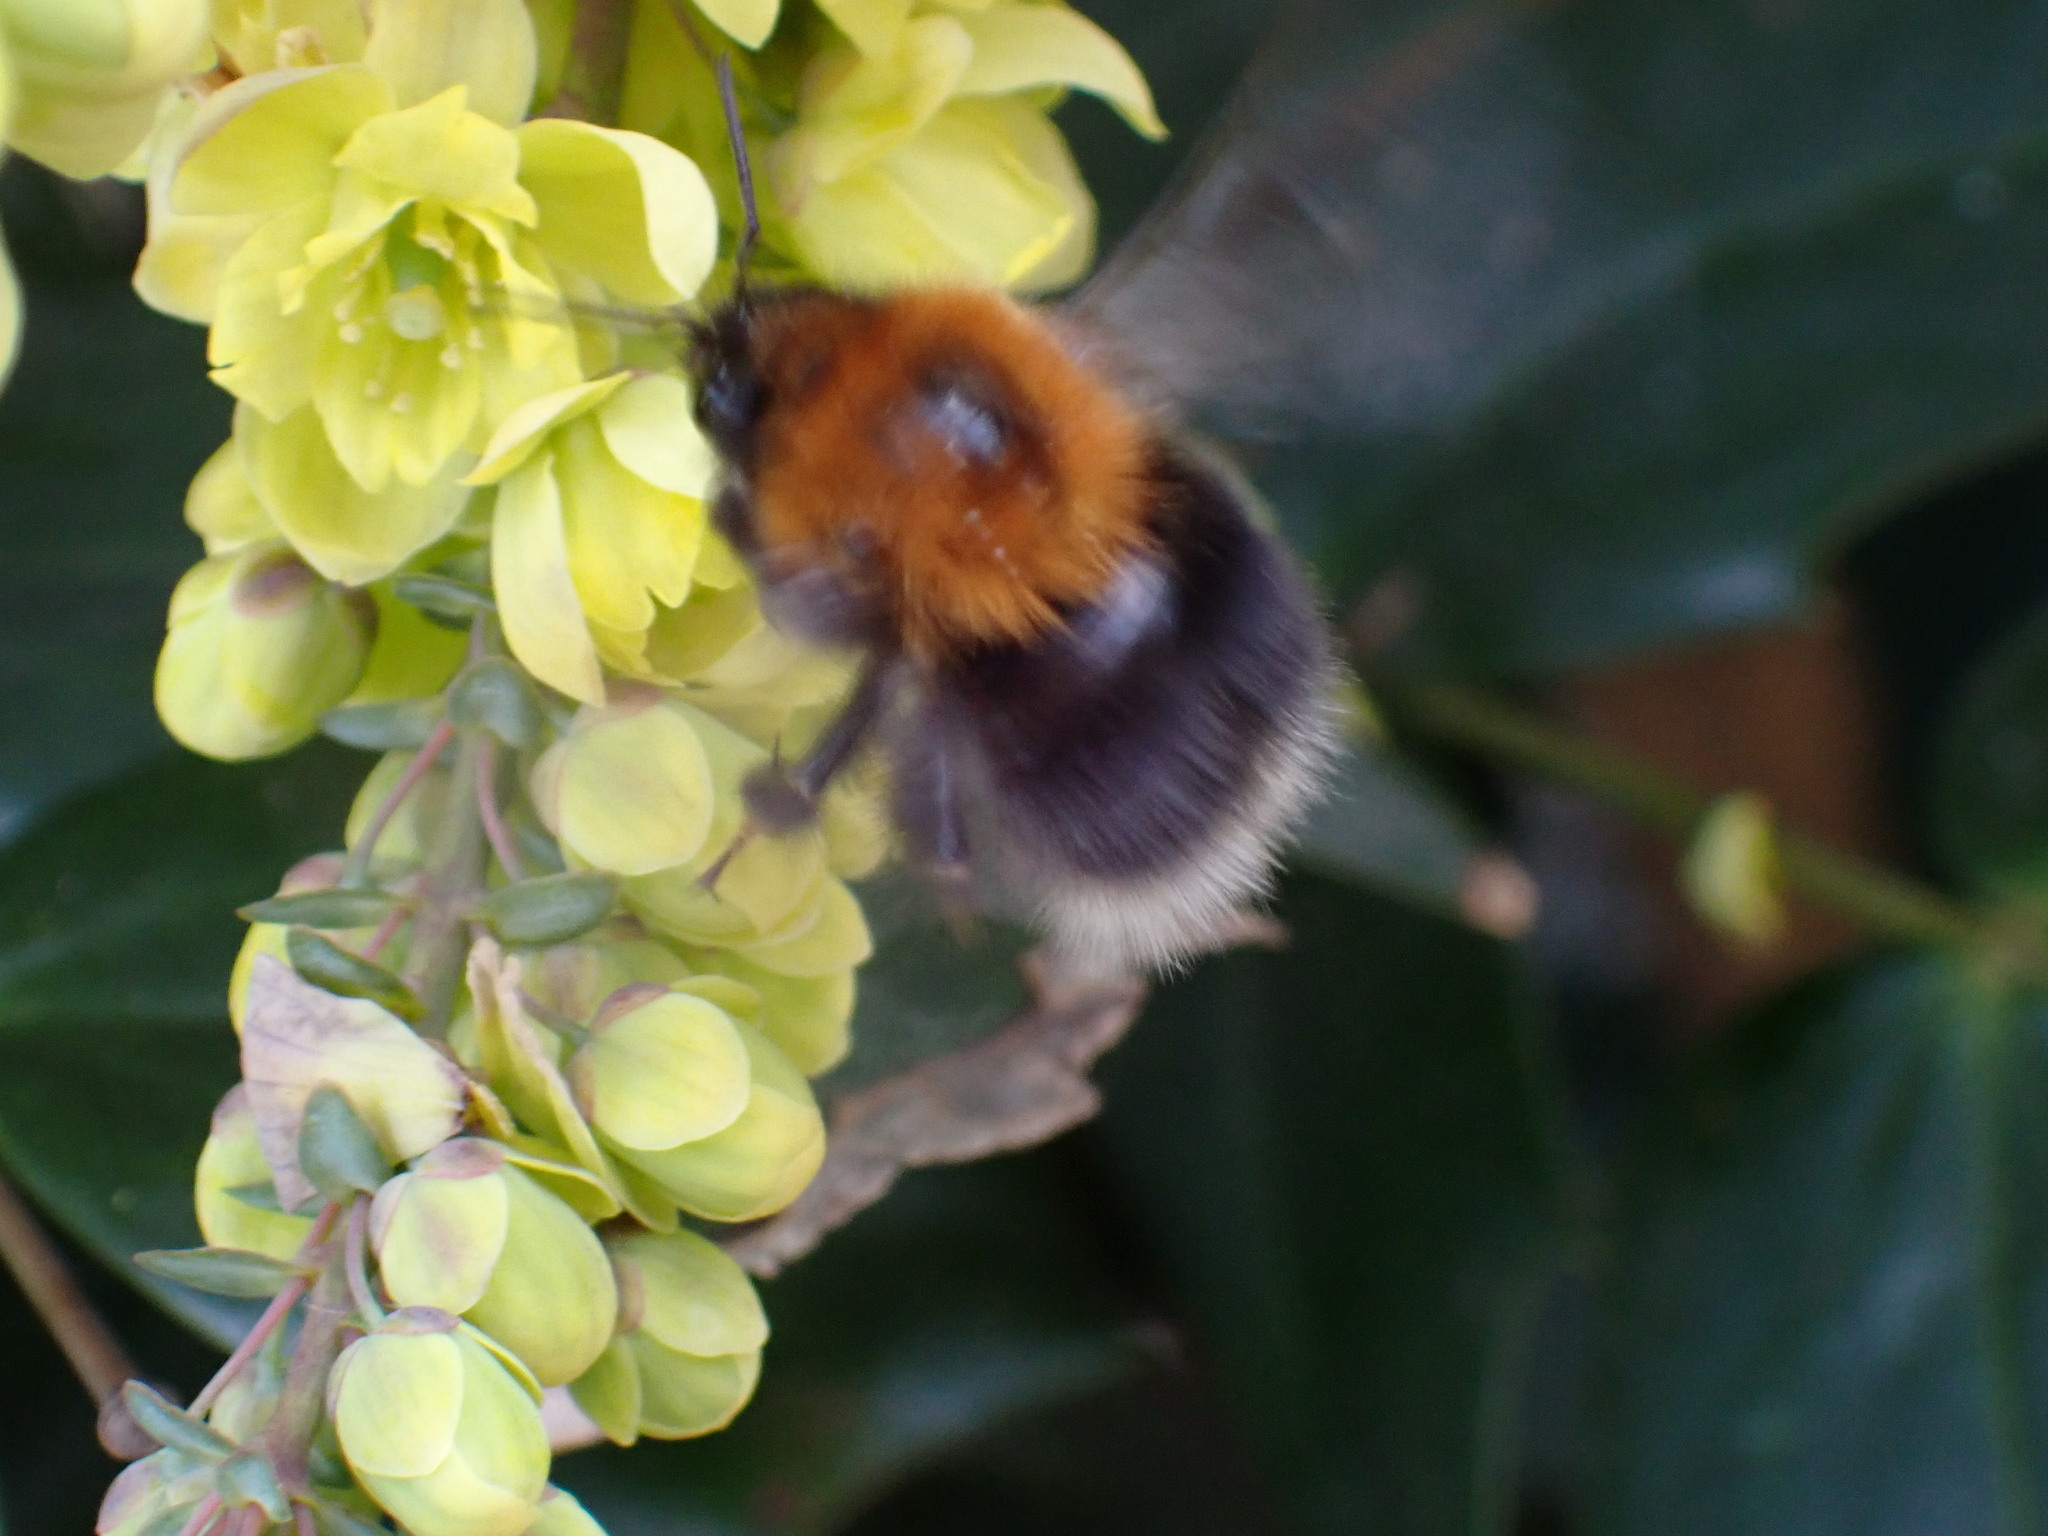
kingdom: Animalia
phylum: Arthropoda
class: Insecta
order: Hymenoptera
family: Apidae
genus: Bombus
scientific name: Bombus hypnorum
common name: New garden bumblebee
